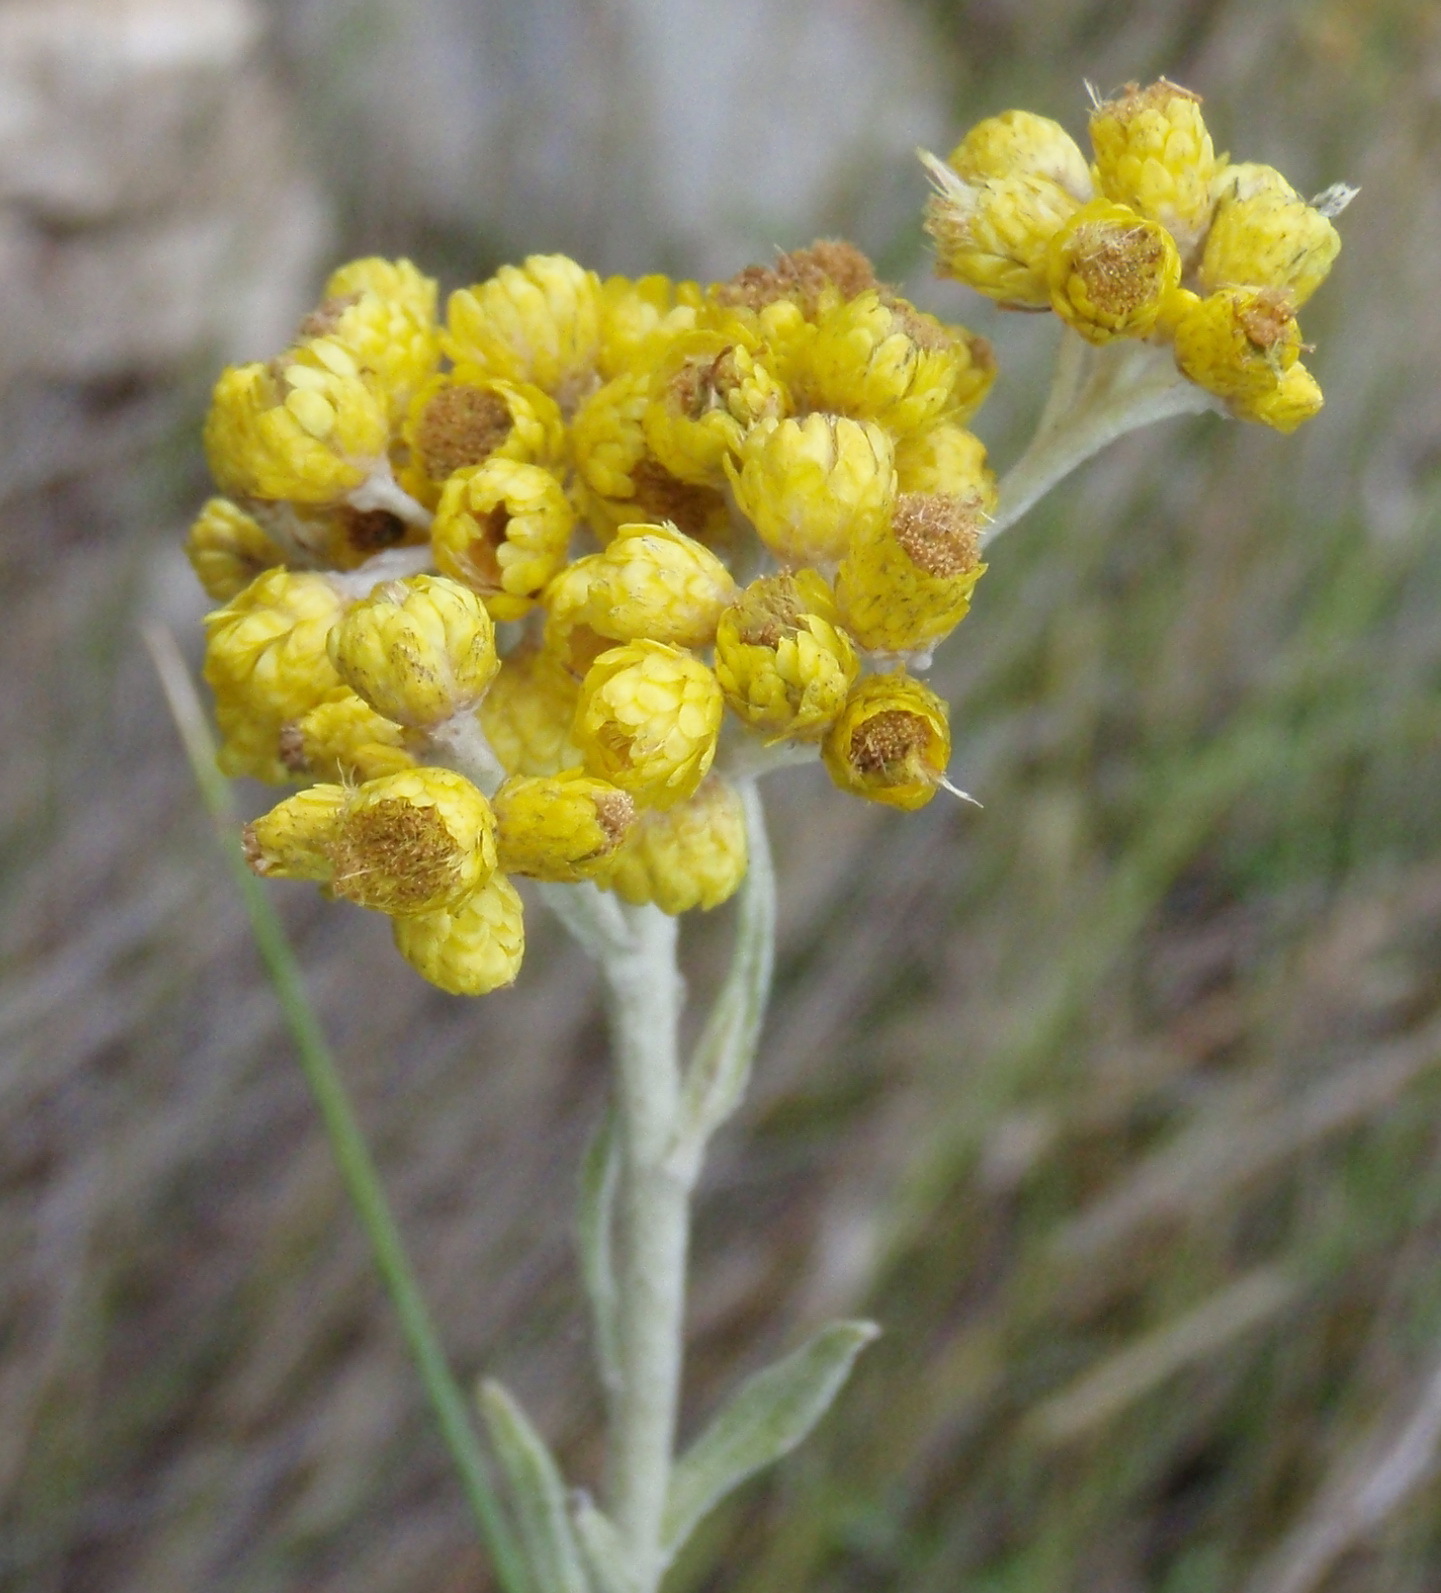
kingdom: Plantae
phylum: Tracheophyta
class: Magnoliopsida
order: Asterales
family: Asteraceae
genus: Helichrysum
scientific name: Helichrysum splendidum
